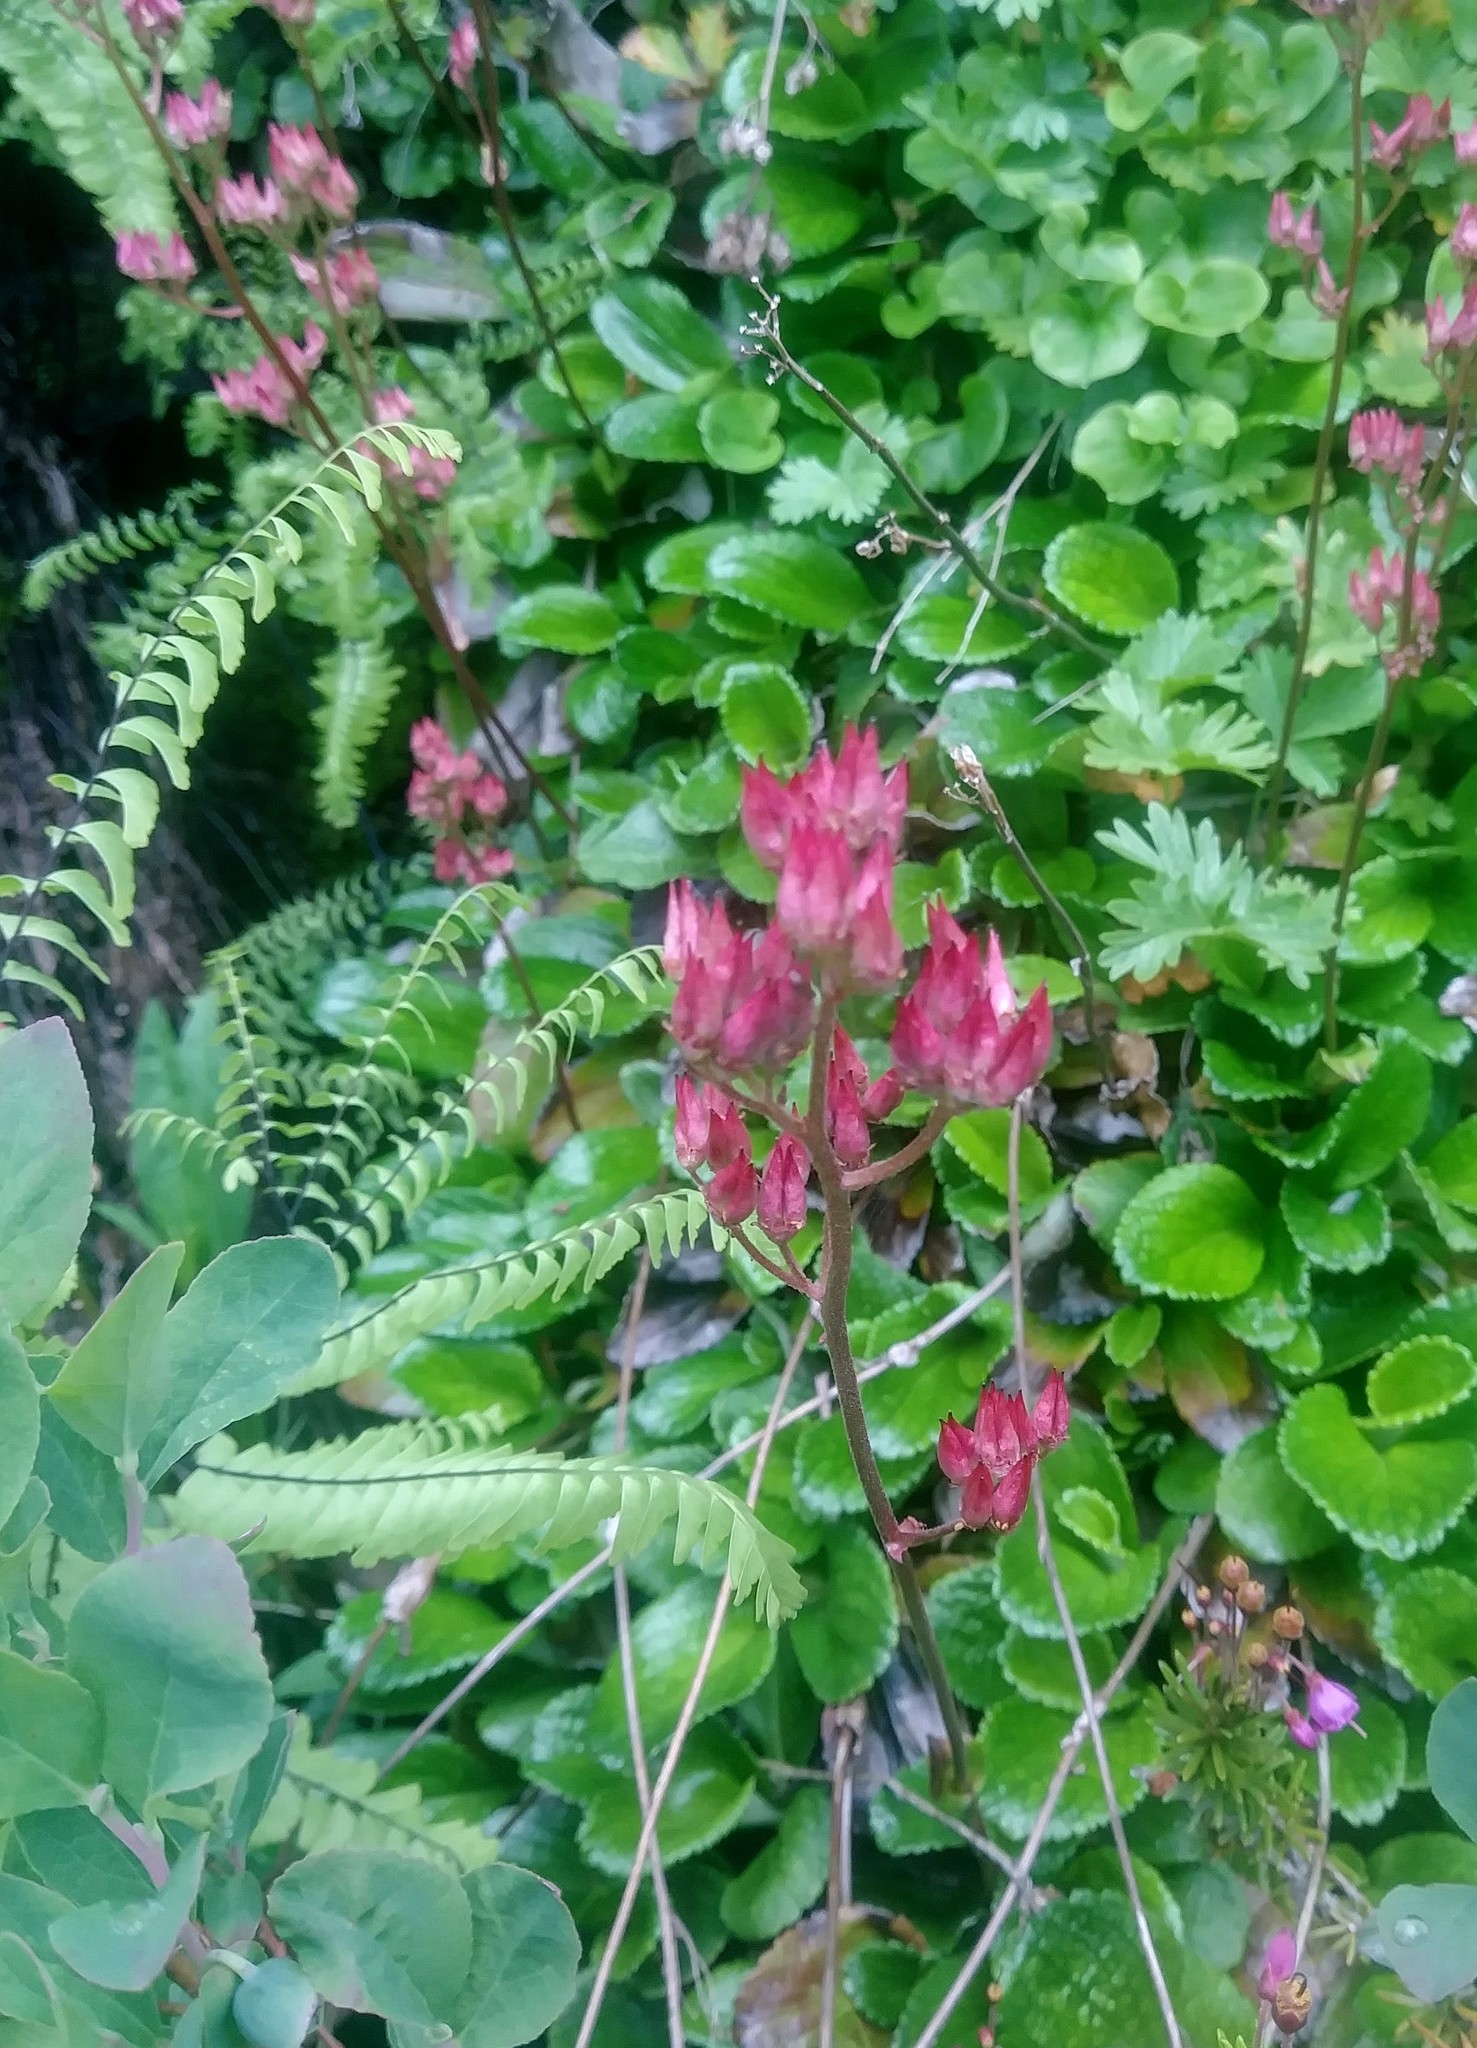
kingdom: Plantae
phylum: Tracheophyta
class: Magnoliopsida
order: Saxifragales
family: Saxifragaceae
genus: Leptarrhena
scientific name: Leptarrhena pyrolifolia
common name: Leatherleaf-saxifrage
